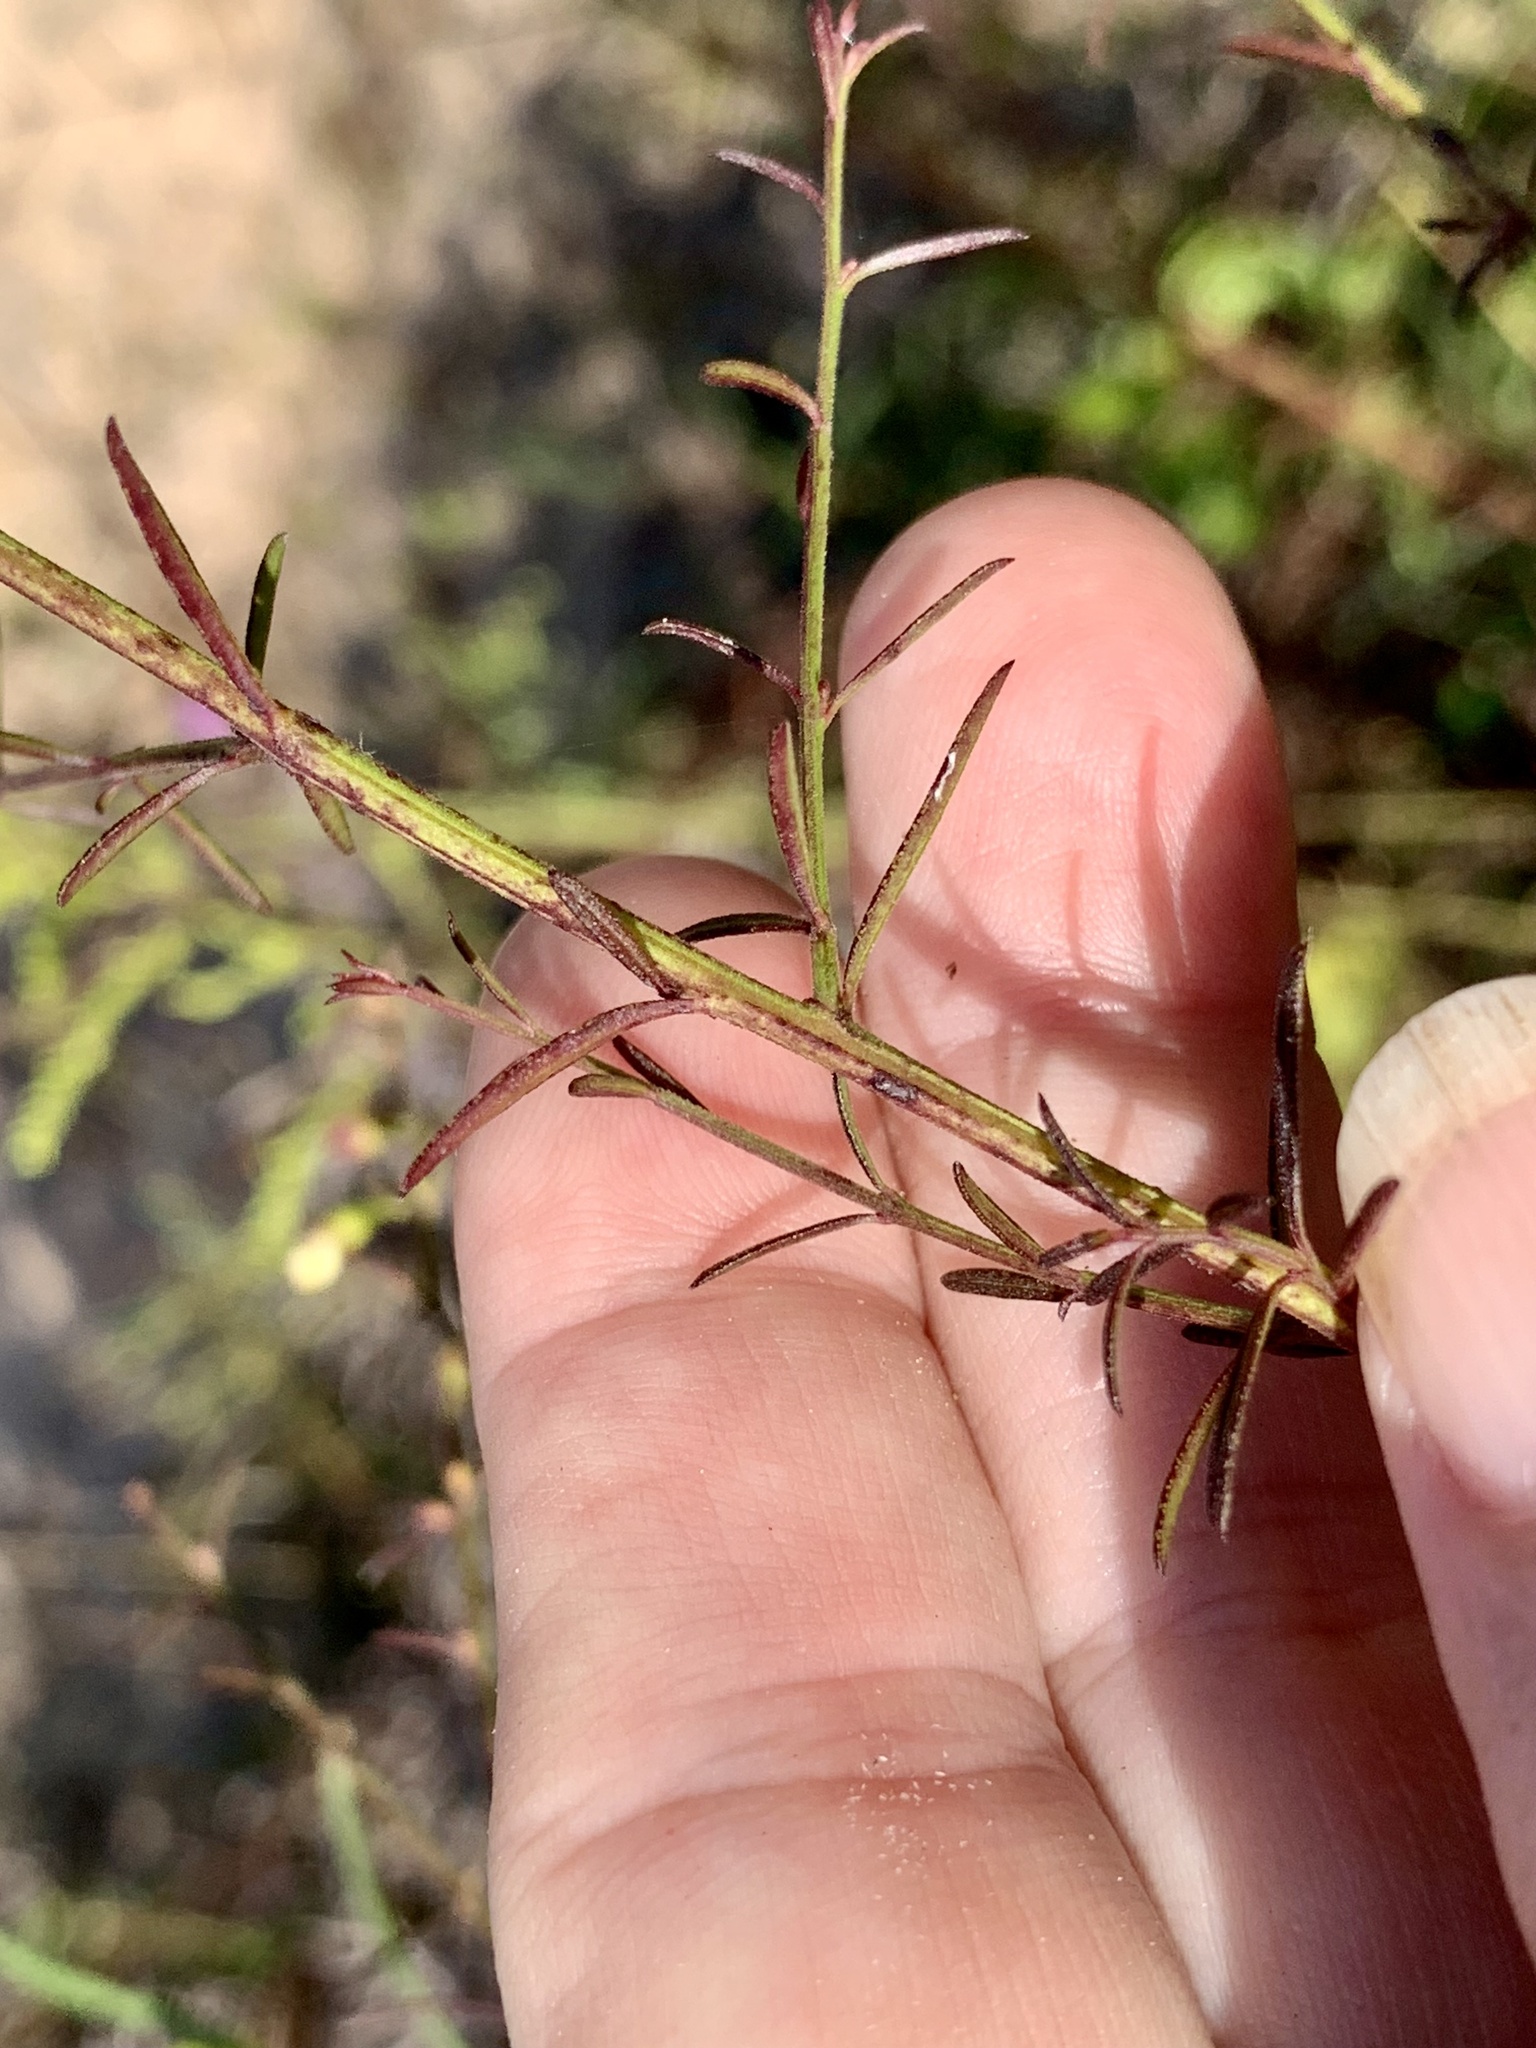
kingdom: Plantae
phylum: Tracheophyta
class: Magnoliopsida
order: Lamiales
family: Orobanchaceae
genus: Agalinis
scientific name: Agalinis purpurea
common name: Purple false foxglove
